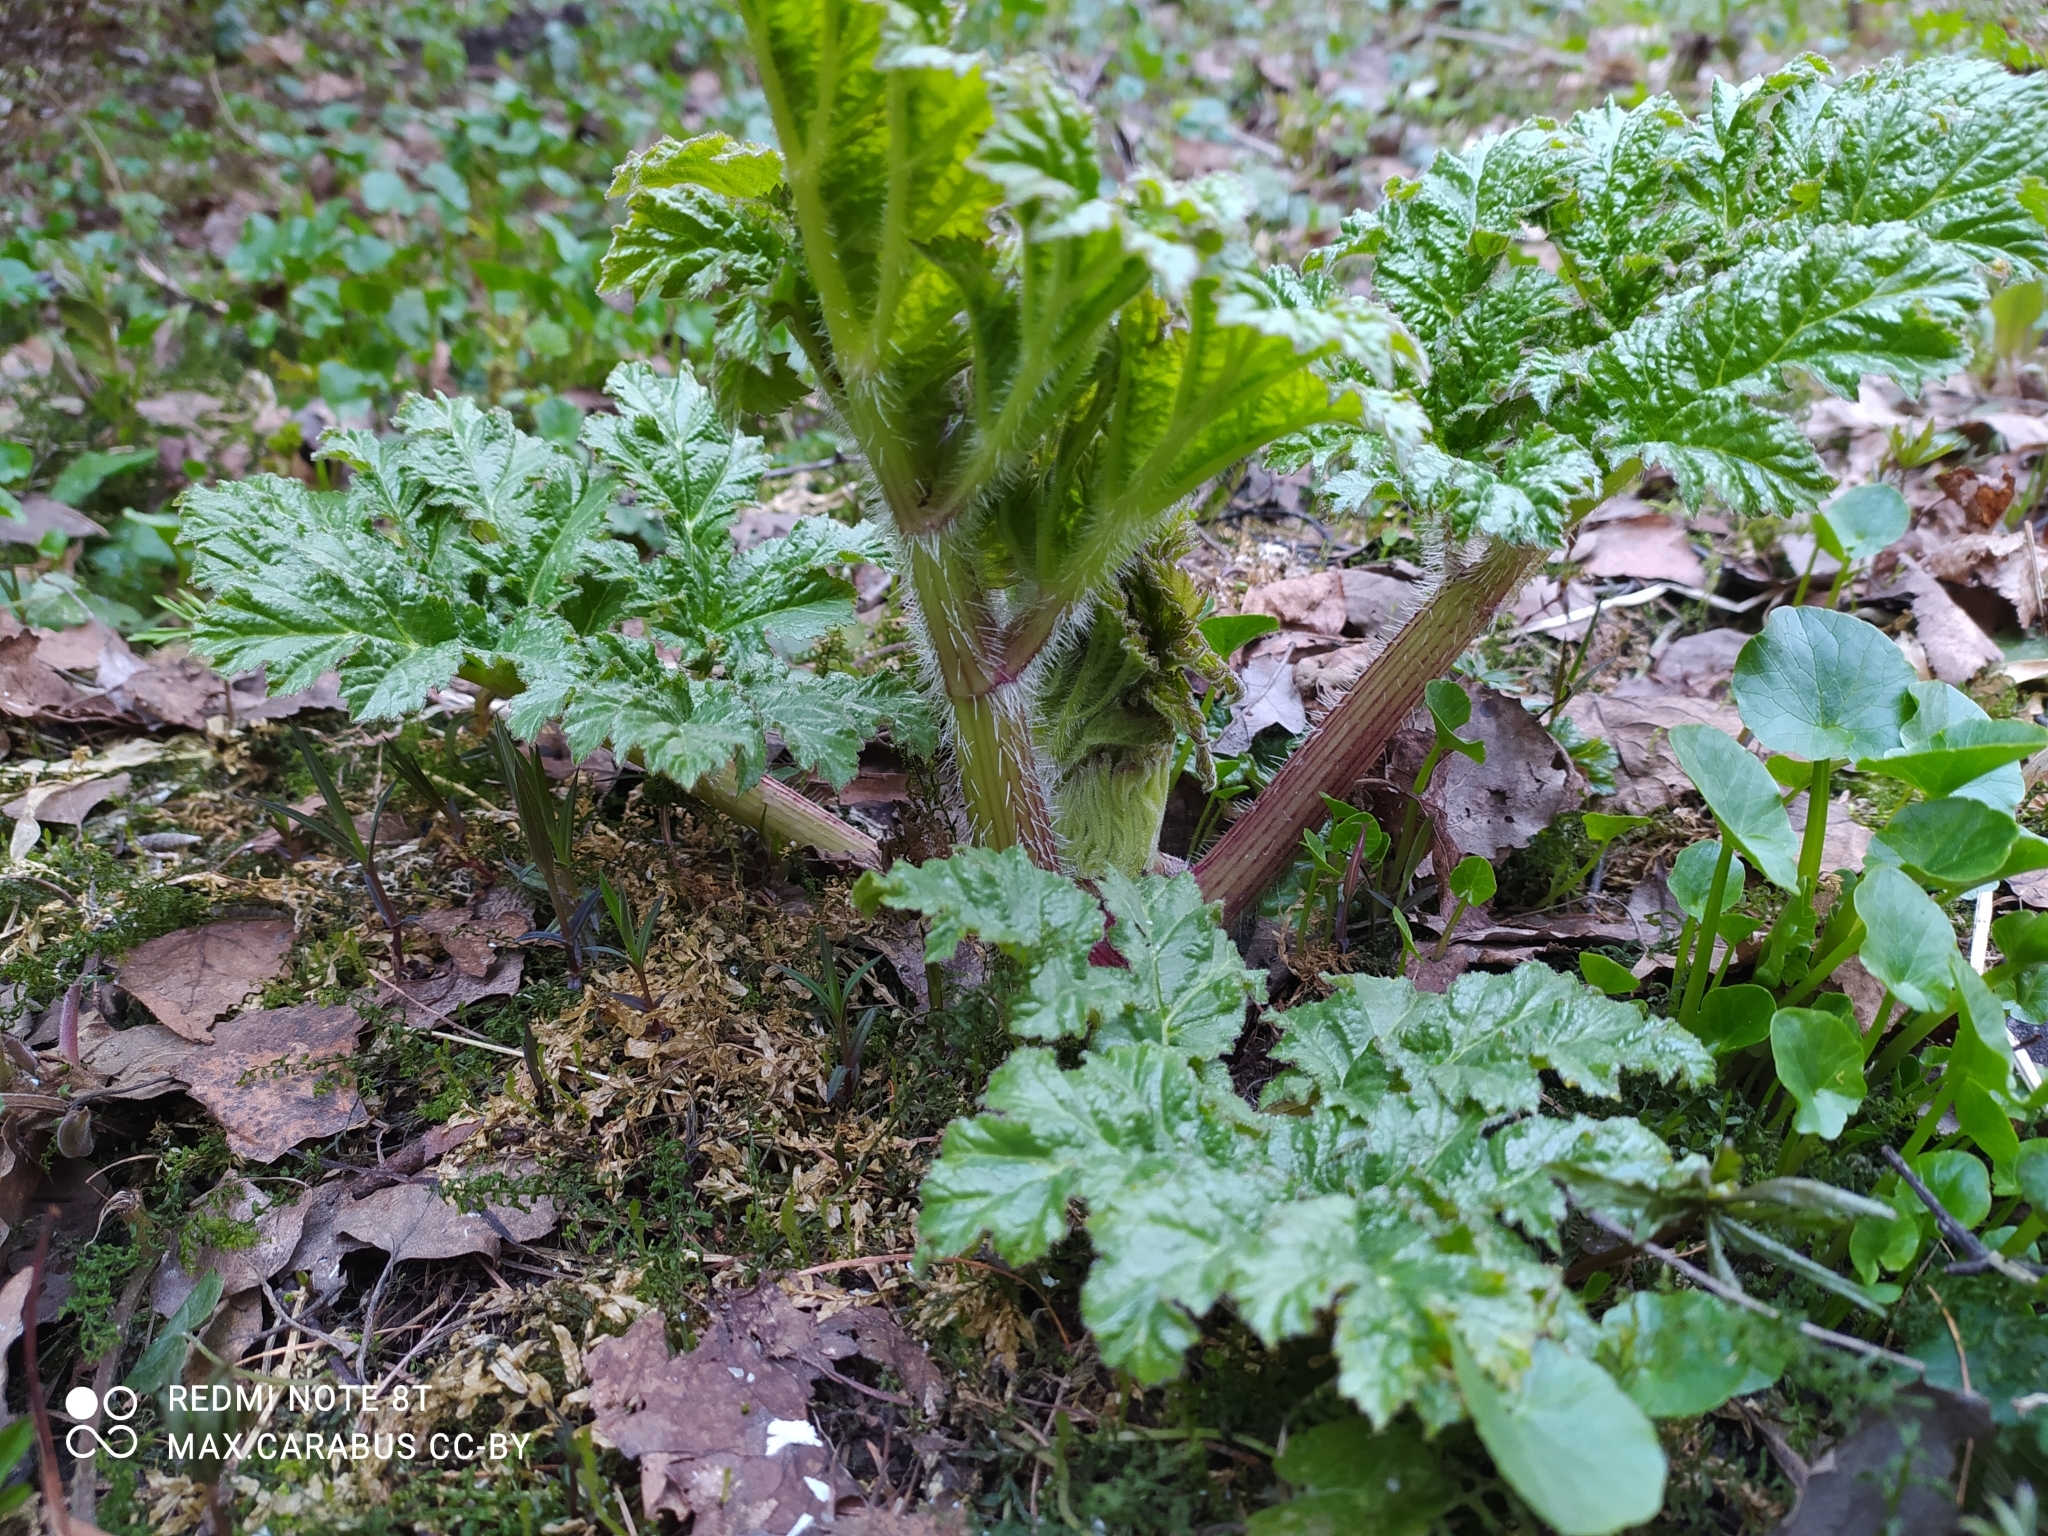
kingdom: Plantae
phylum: Tracheophyta
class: Magnoliopsida
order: Apiales
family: Apiaceae
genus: Heracleum
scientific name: Heracleum sosnowskyi
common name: Sosnowsky's hogweed
